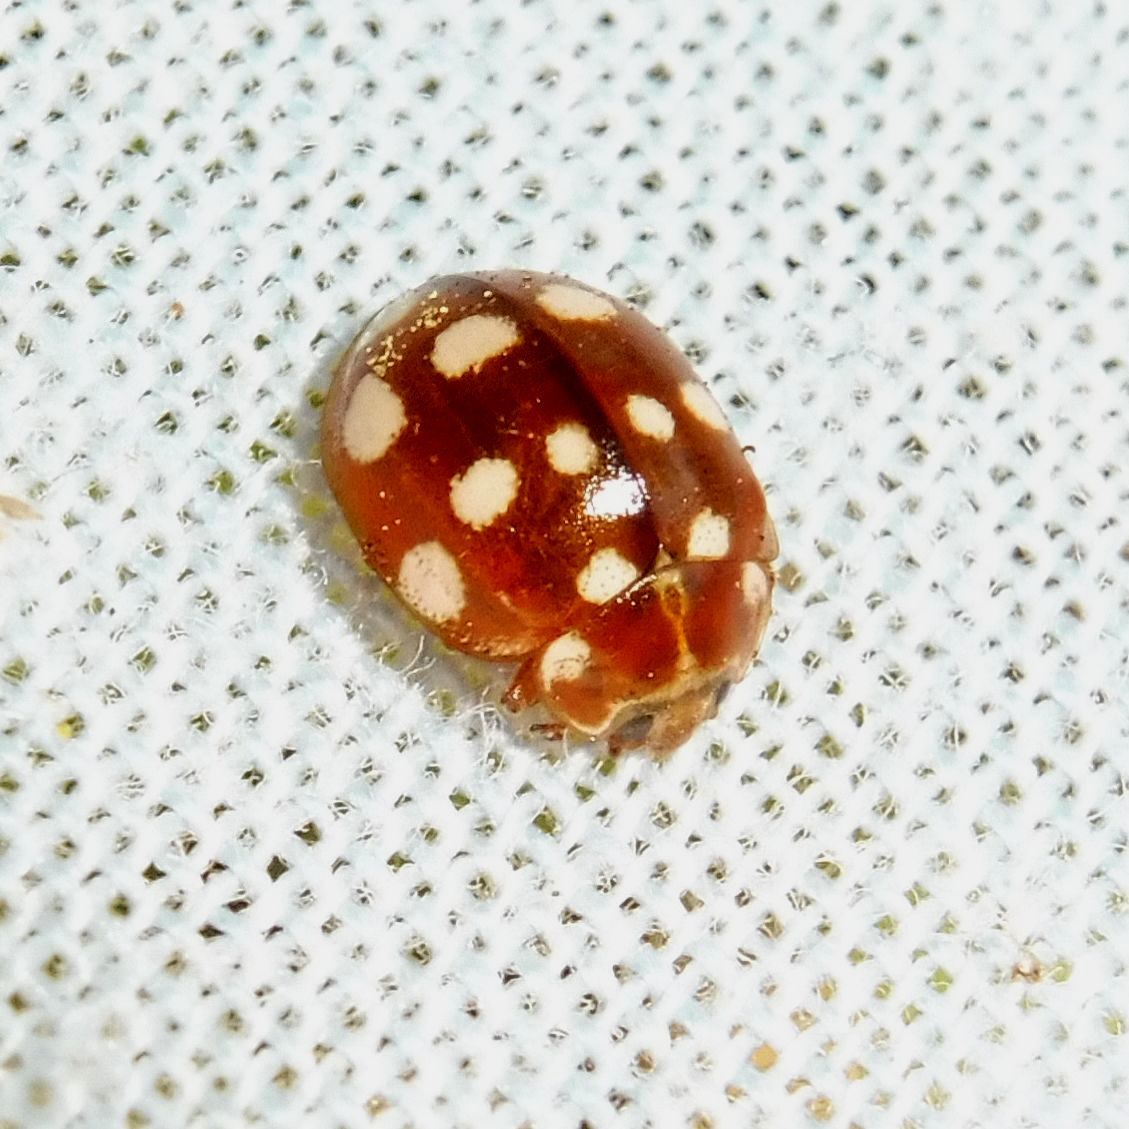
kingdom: Animalia
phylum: Arthropoda
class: Insecta
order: Coleoptera
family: Coccinellidae
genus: Calvia
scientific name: Calvia quatuordecimguttata
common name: Cream-spot ladybird
